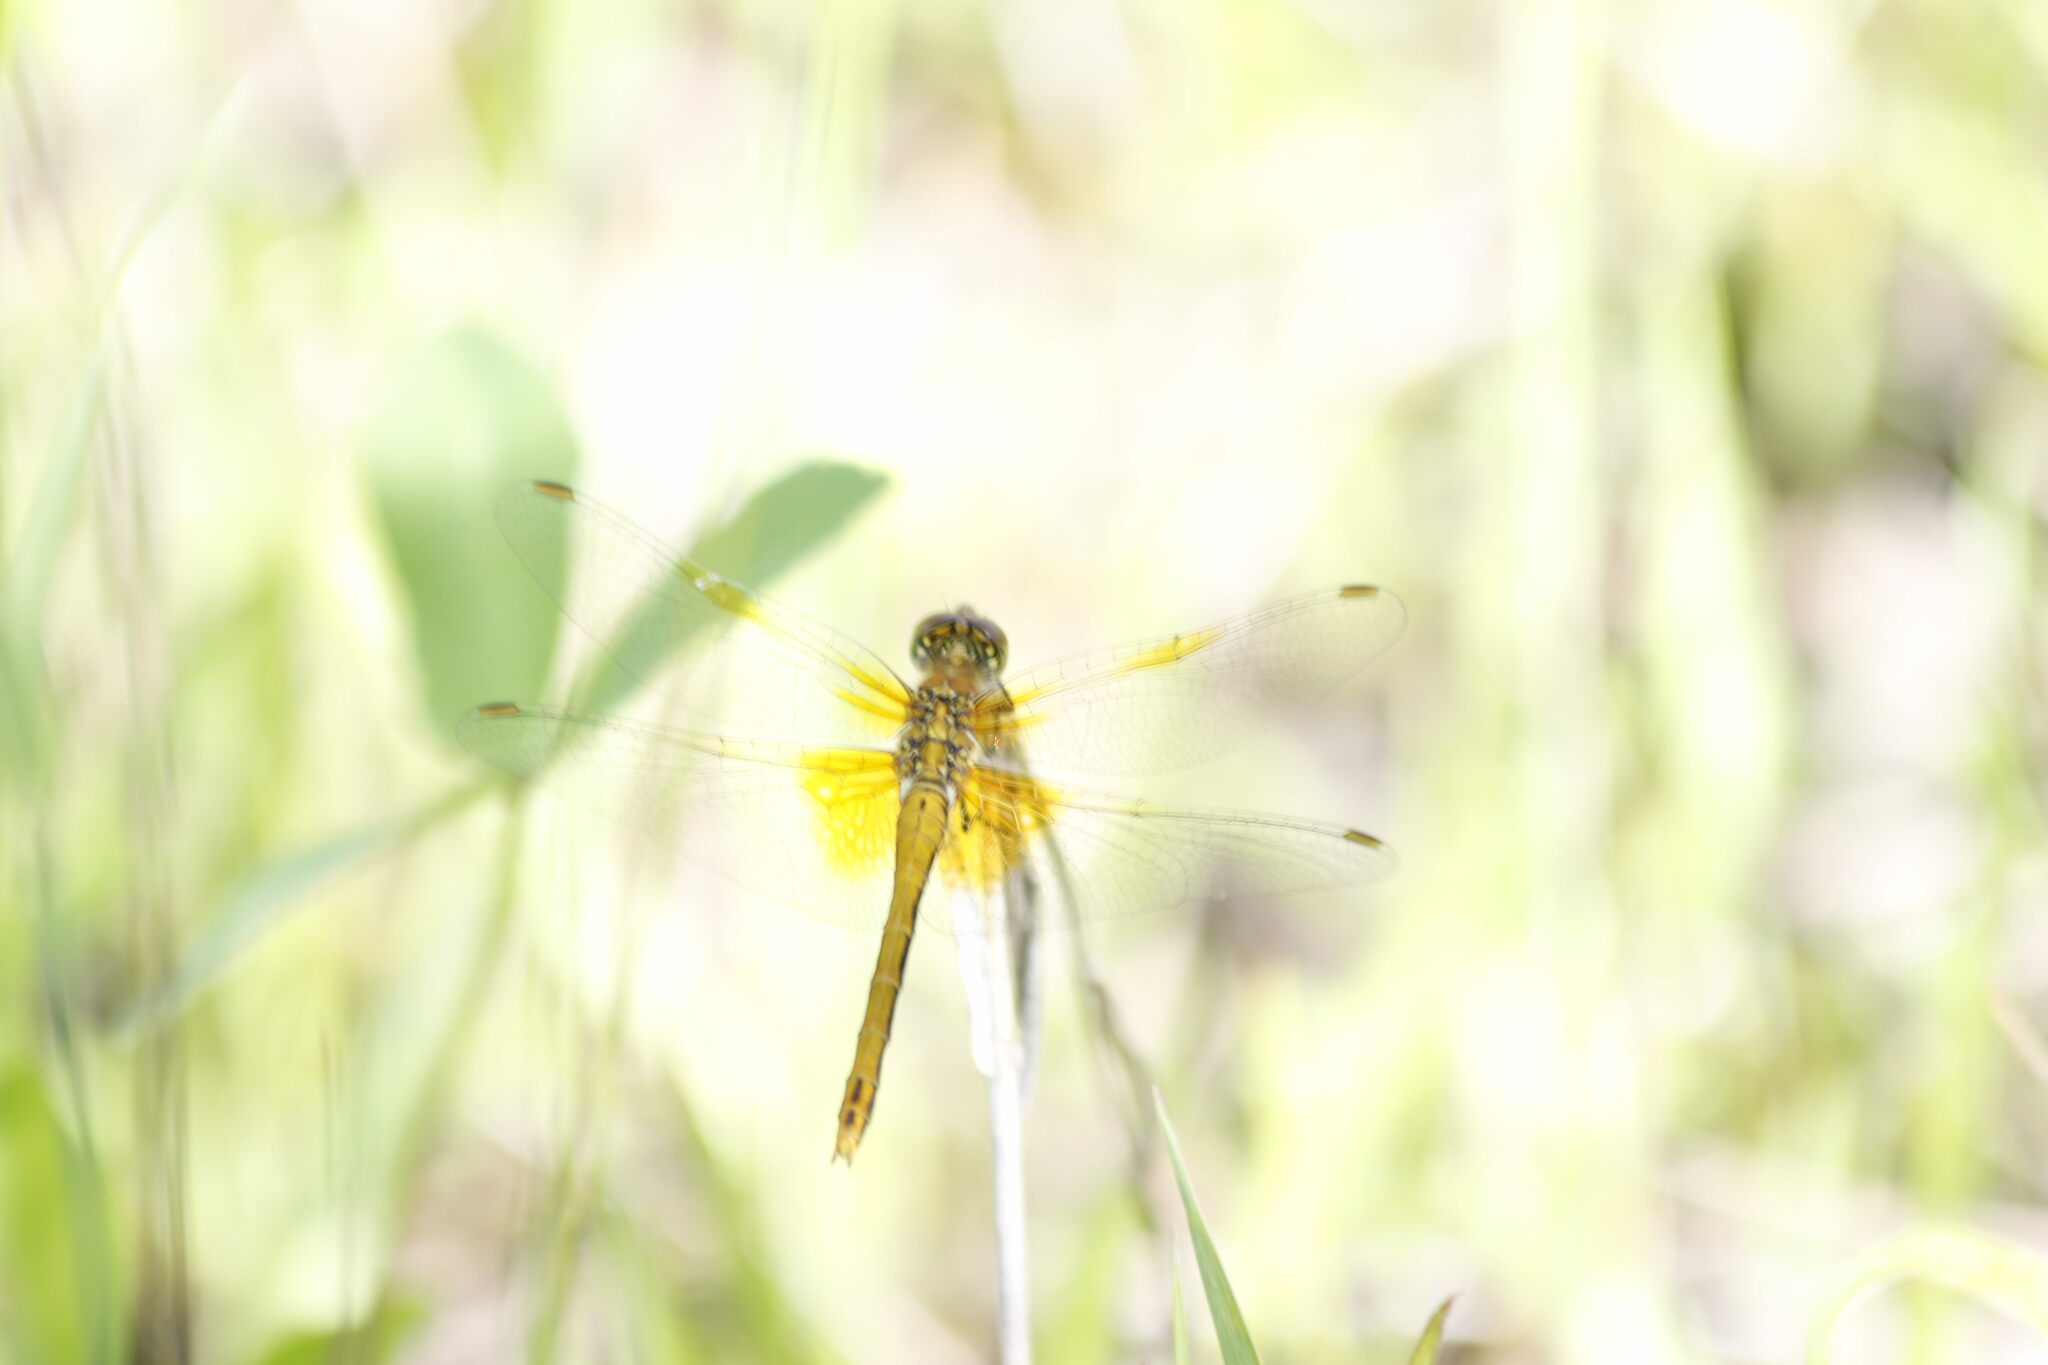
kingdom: Animalia
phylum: Arthropoda
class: Insecta
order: Odonata
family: Libellulidae
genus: Sympetrum
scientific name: Sympetrum flaveolum
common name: Yellow-winged darter
